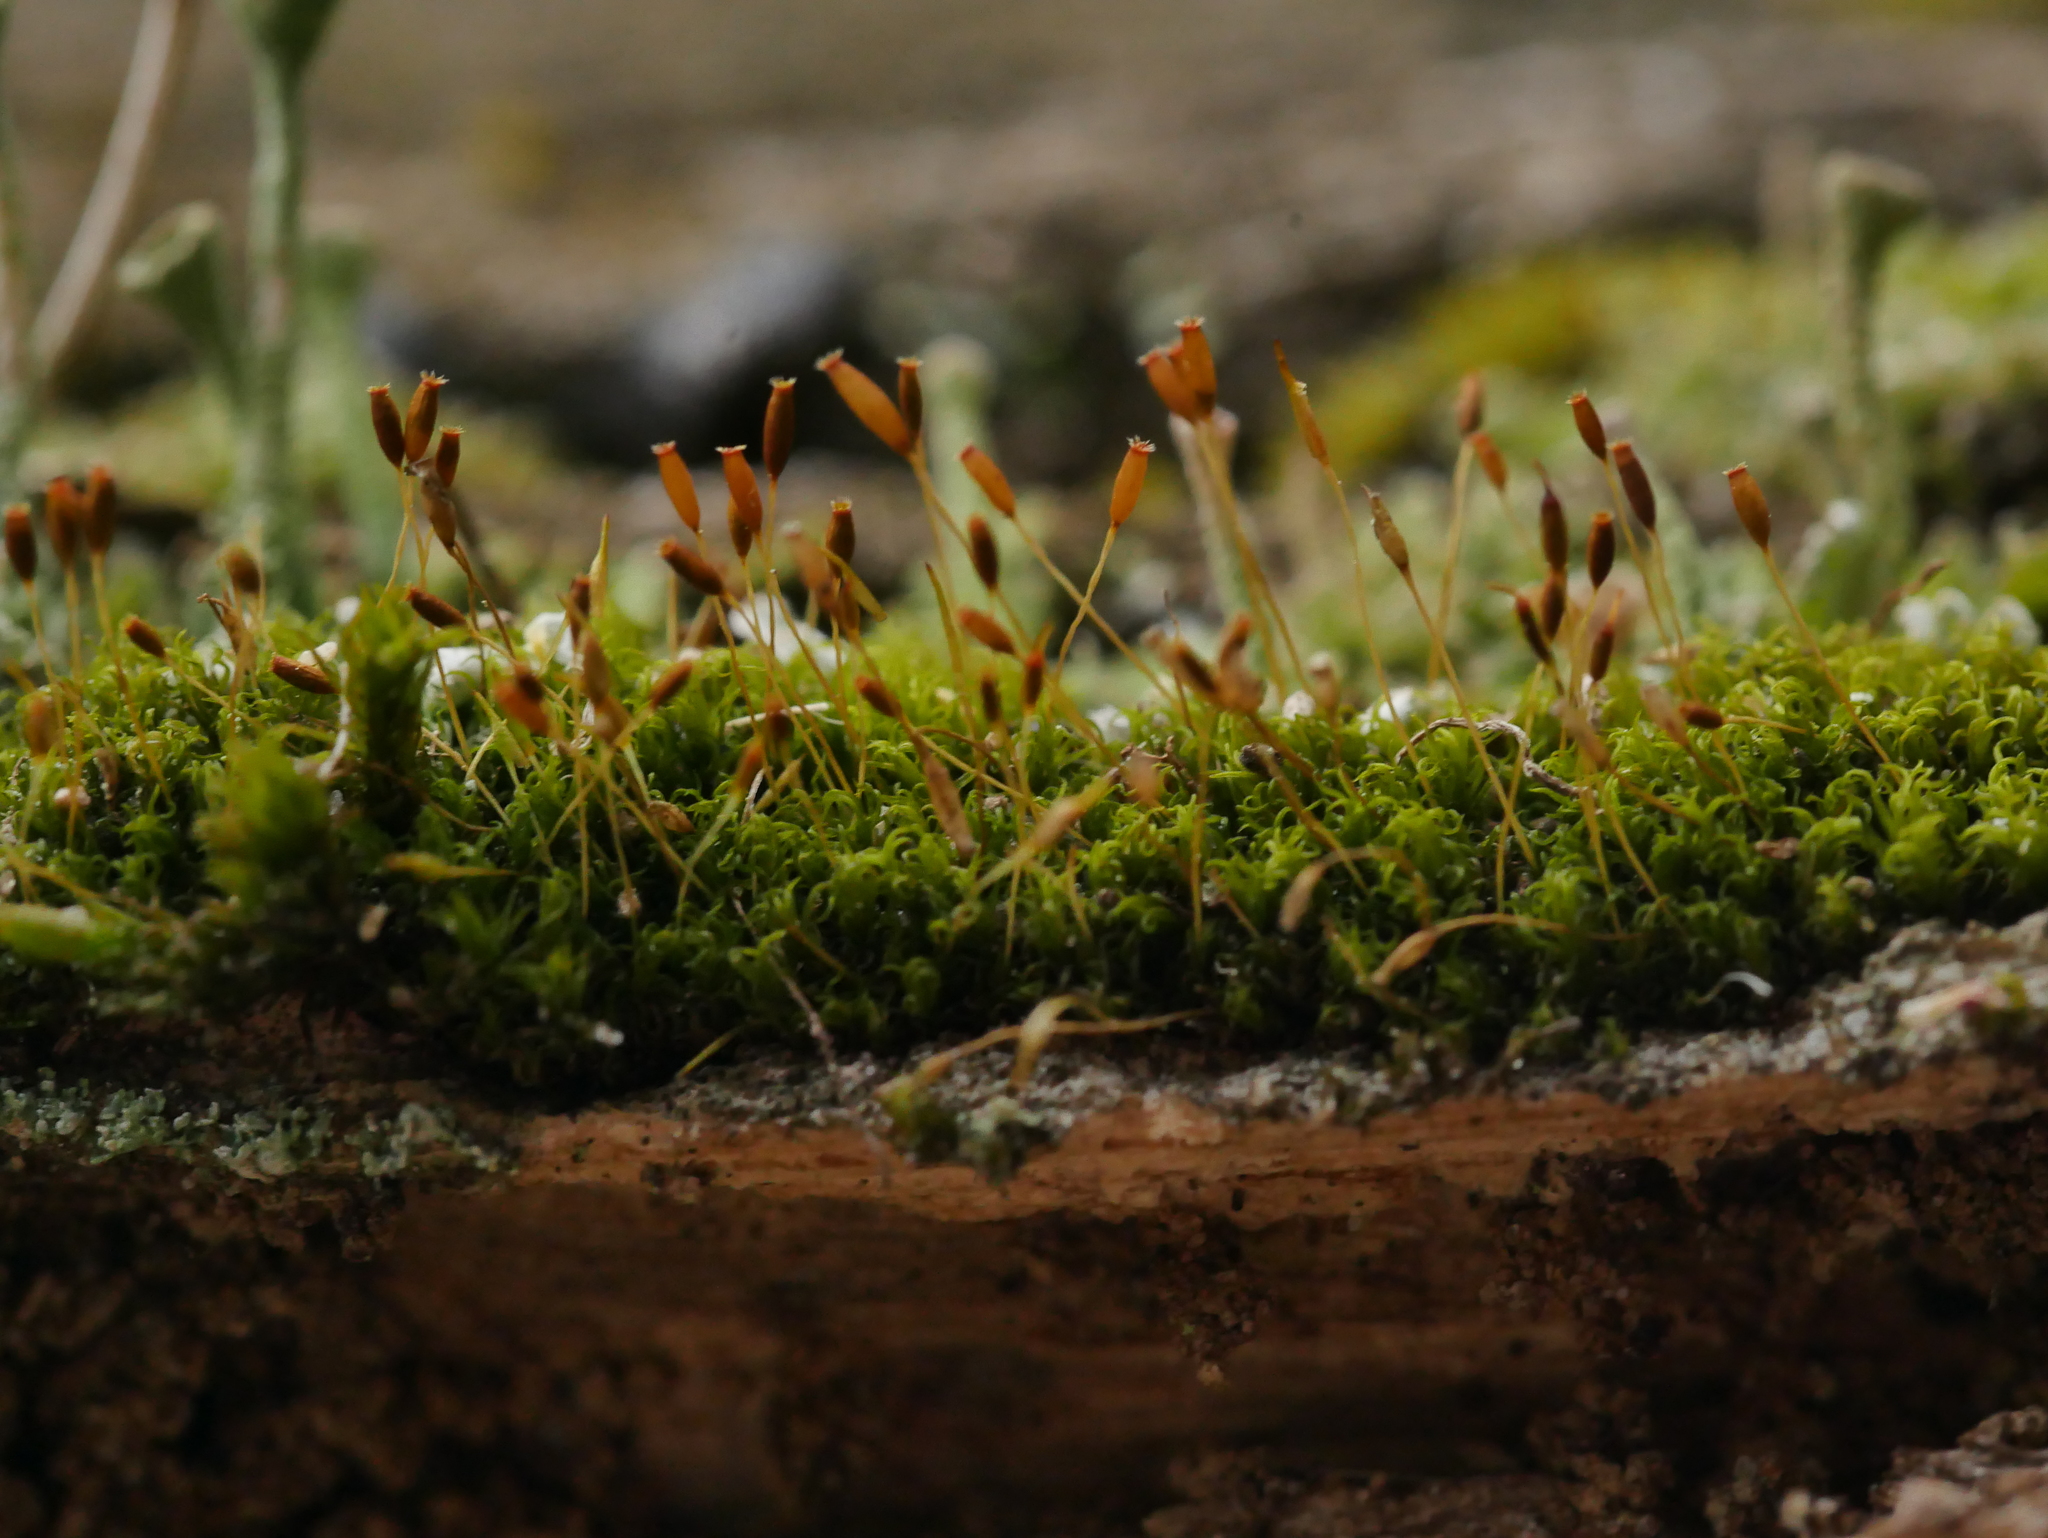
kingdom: Plantae
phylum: Bryophyta
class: Bryopsida
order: Dicranales
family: Rhabdoweisiaceae
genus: Dicranoweisia
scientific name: Dicranoweisia cirrata
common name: Common pincushion
